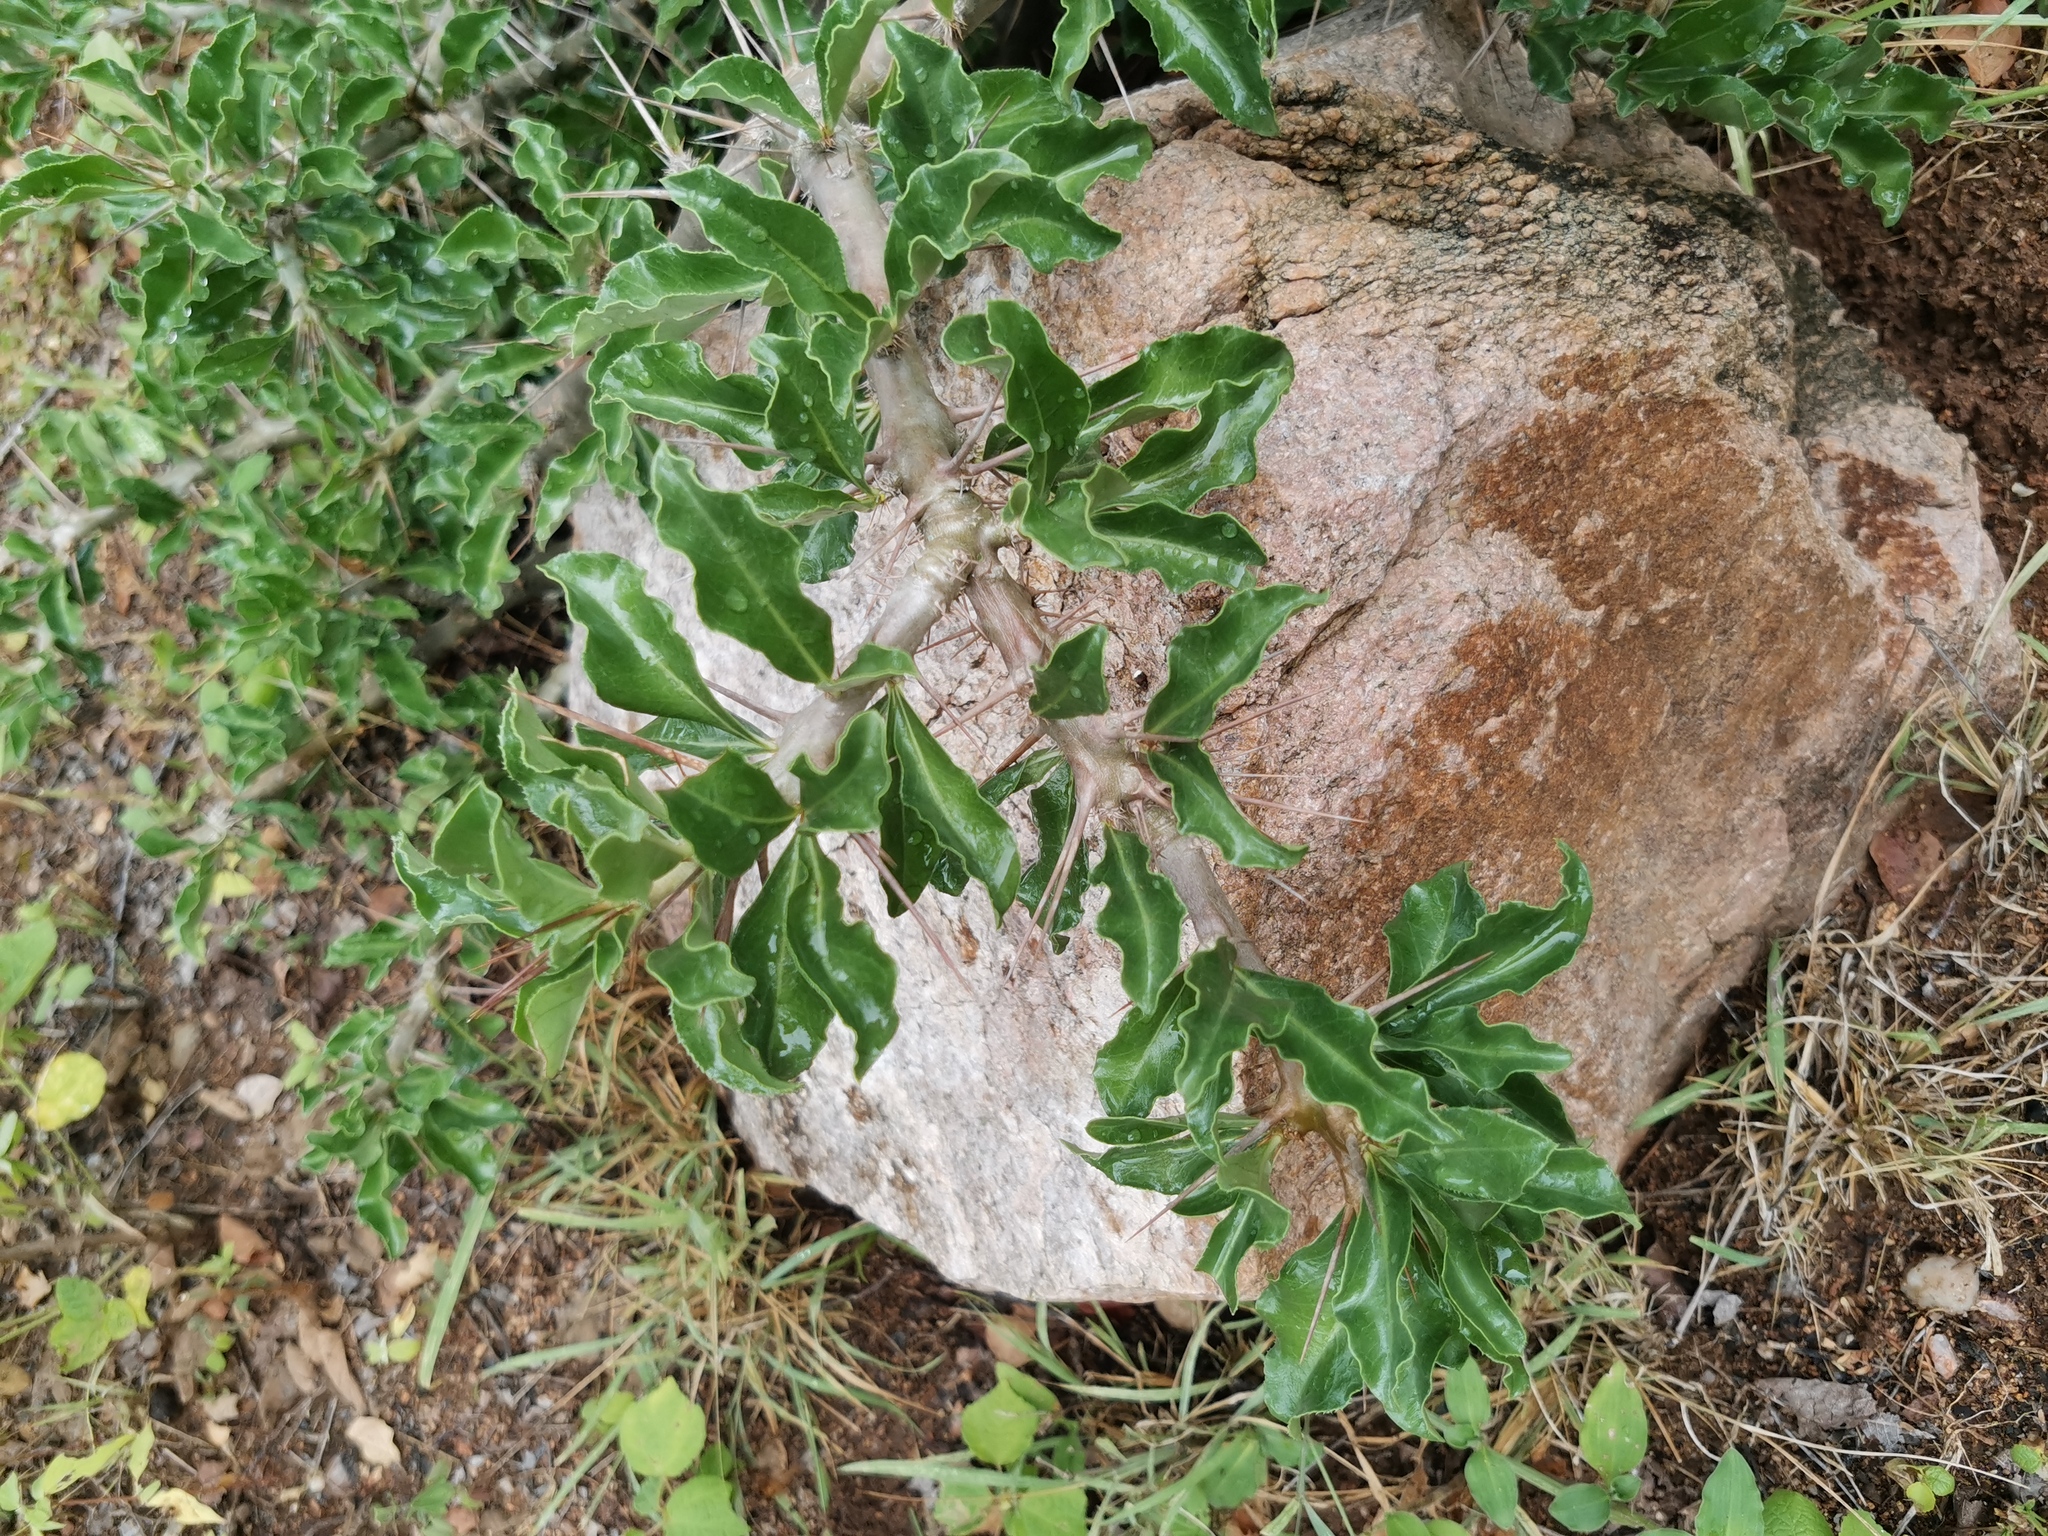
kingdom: Plantae
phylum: Tracheophyta
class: Magnoliopsida
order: Gentianales
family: Apocynaceae
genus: Pachypodium
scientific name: Pachypodium saundersii
